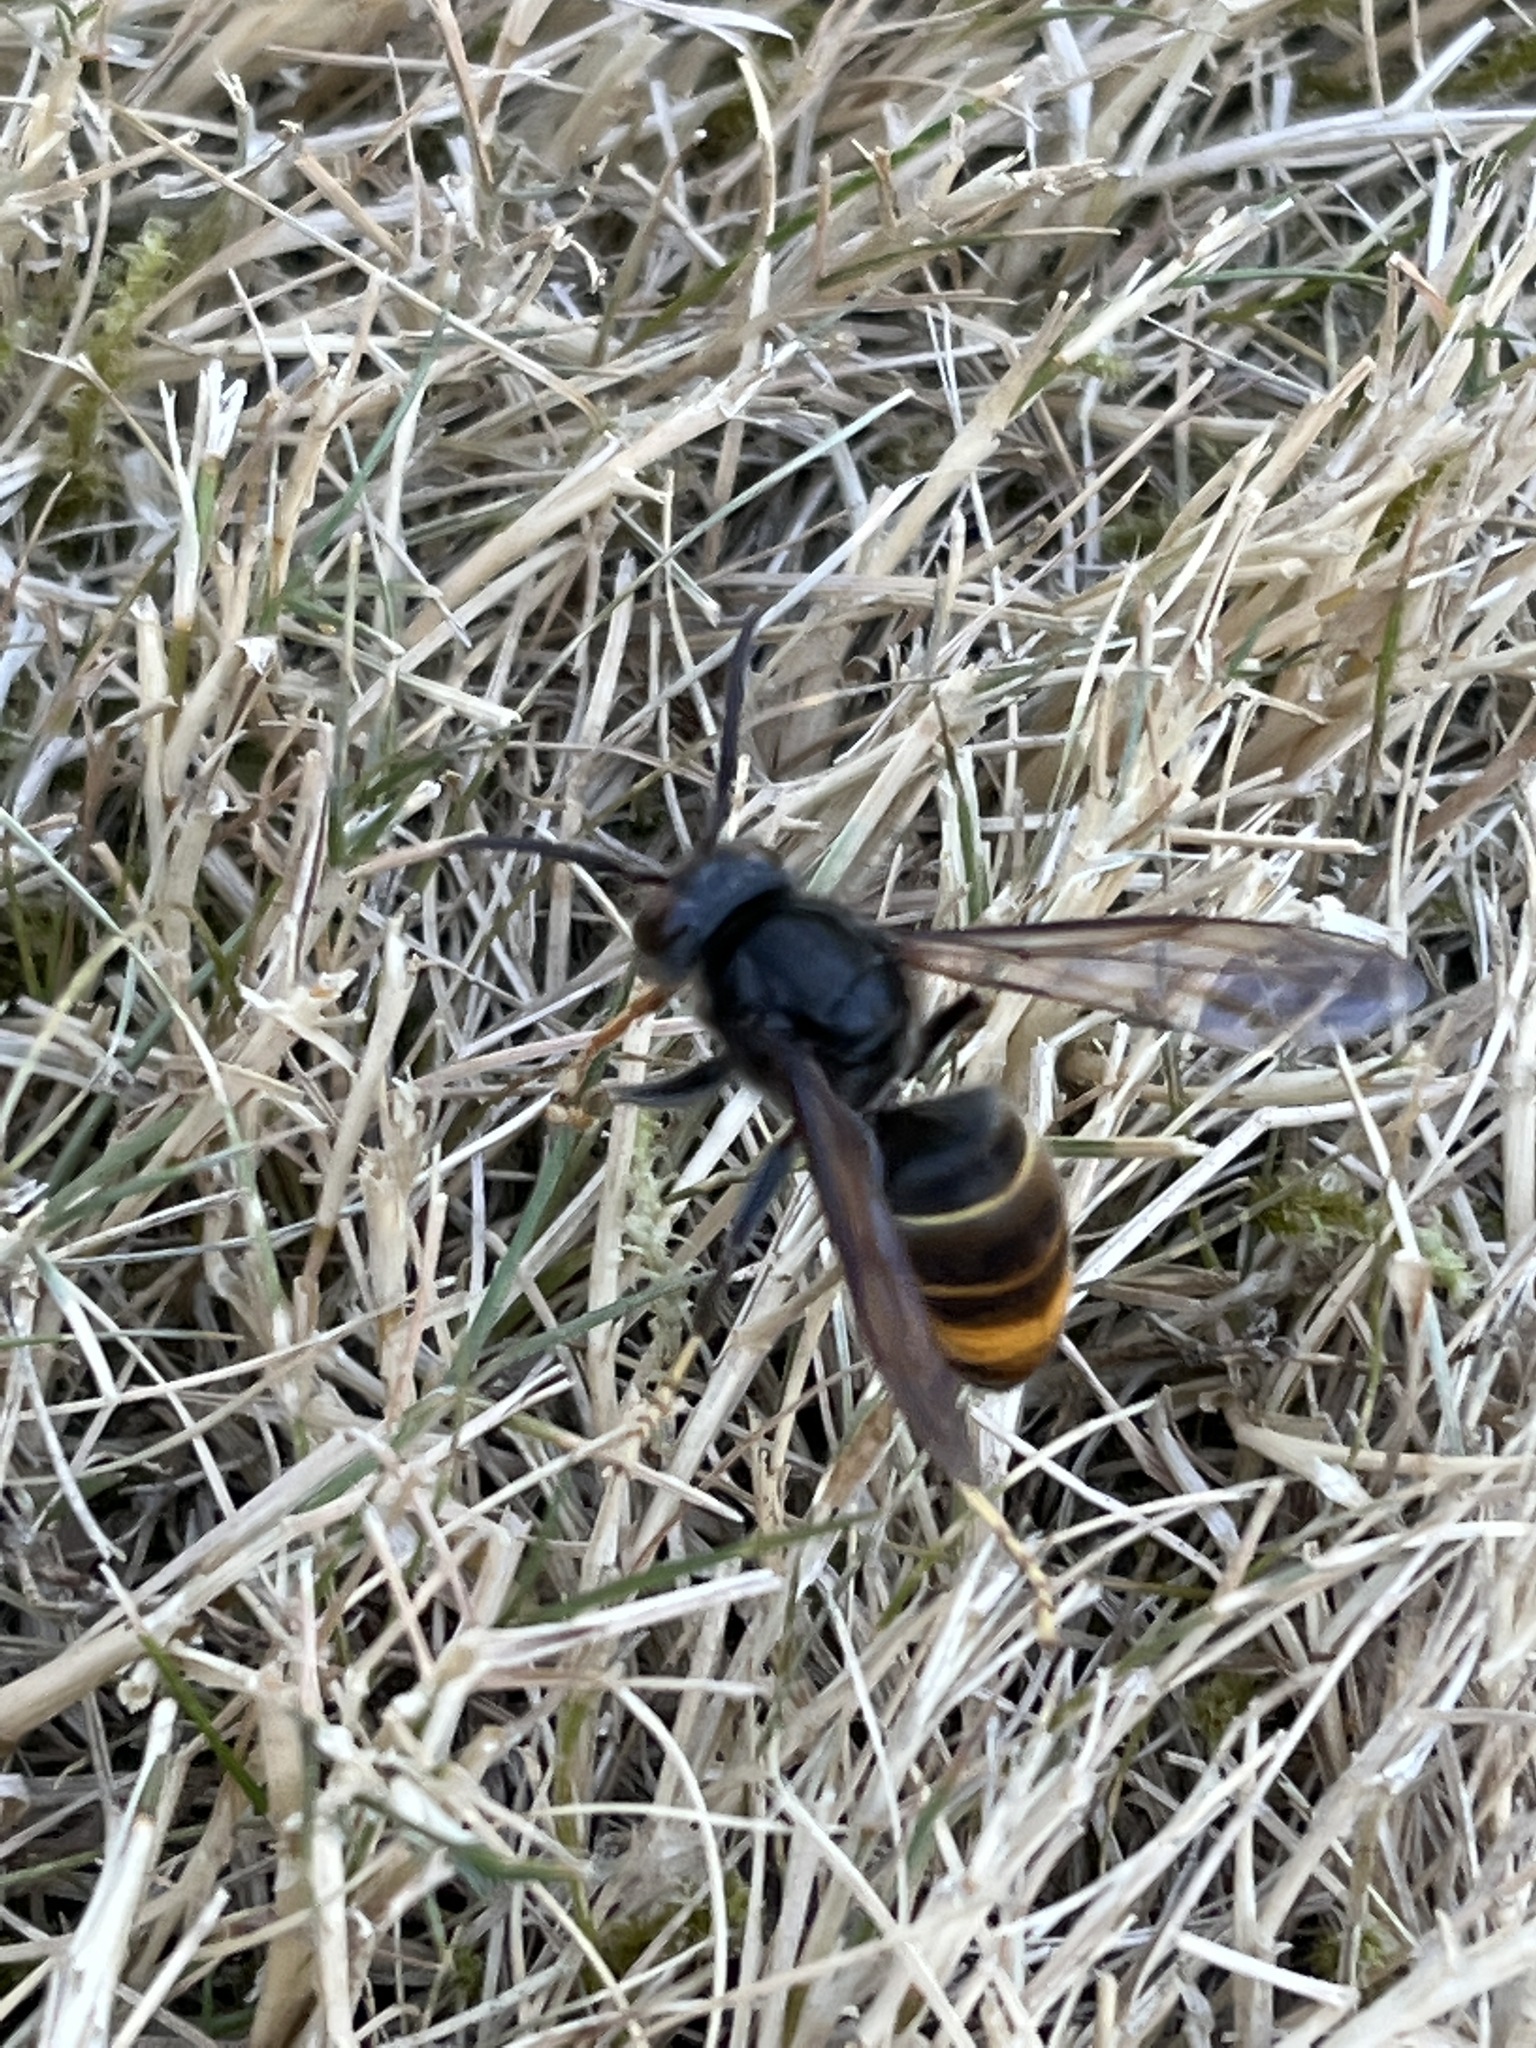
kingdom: Animalia
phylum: Arthropoda
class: Insecta
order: Hymenoptera
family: Vespidae
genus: Vespa
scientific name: Vespa velutina
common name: Asian hornet
